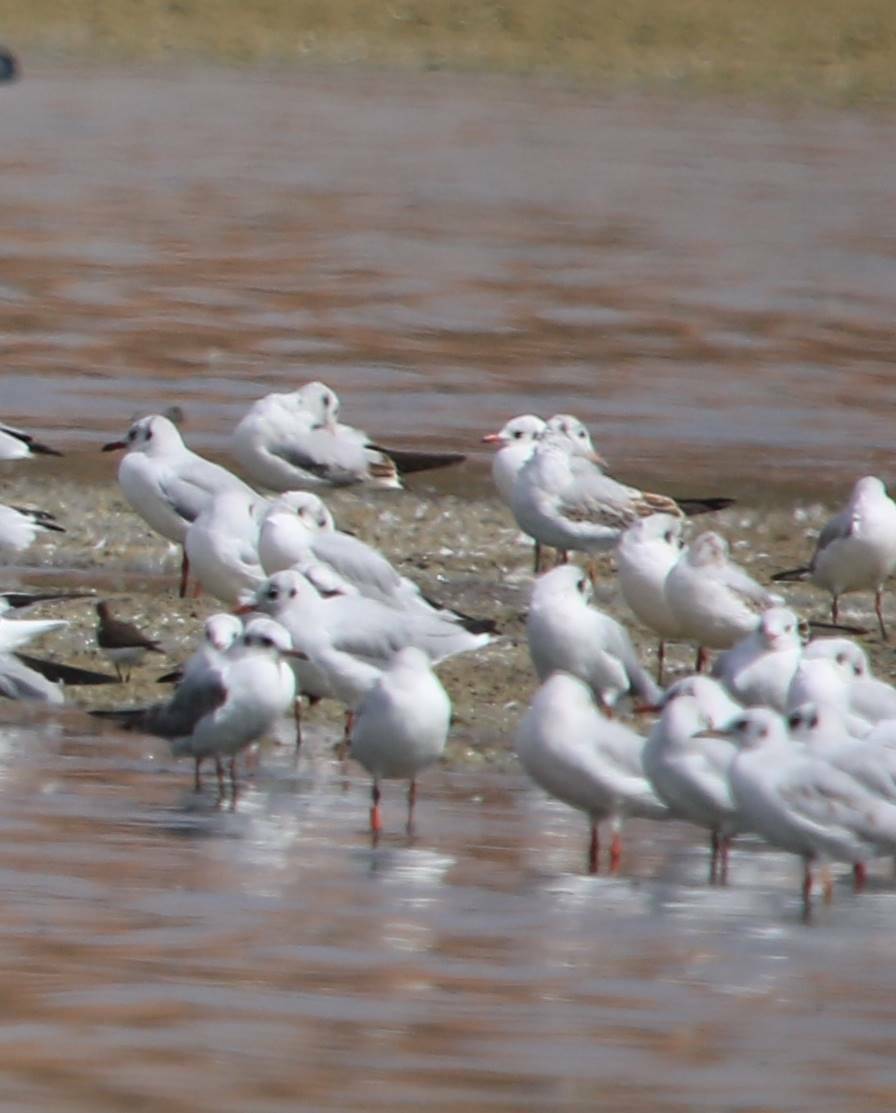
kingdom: Animalia
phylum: Chordata
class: Aves
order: Charadriiformes
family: Laridae
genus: Chroicocephalus
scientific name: Chroicocephalus ridibundus
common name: Black-headed gull
